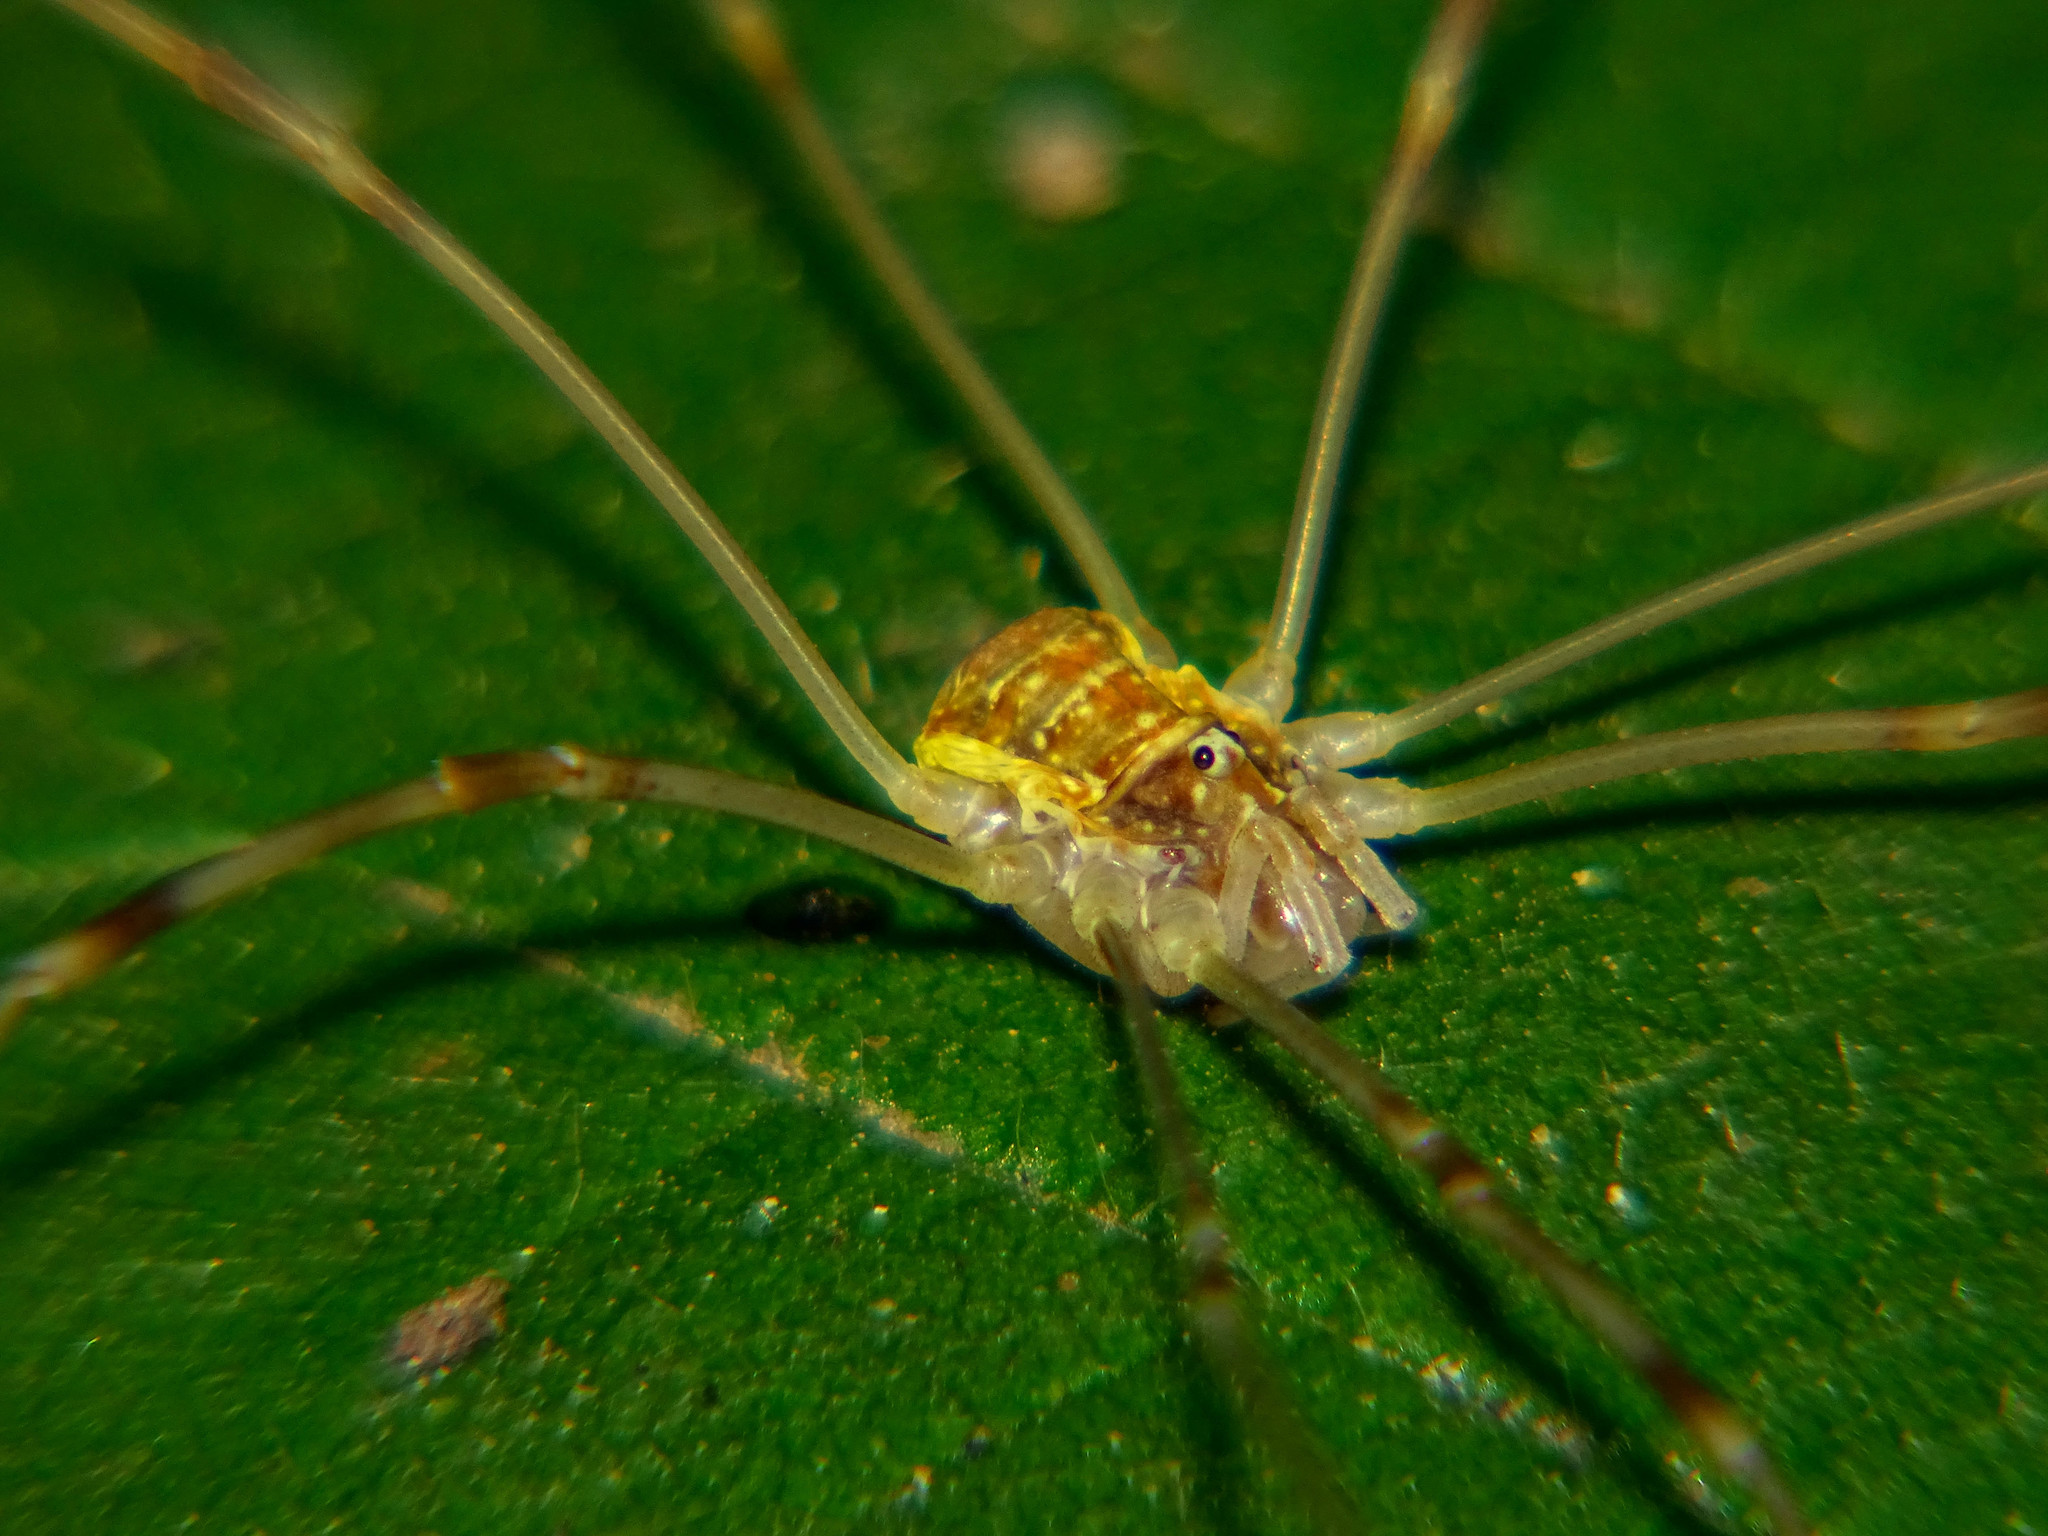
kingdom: Animalia
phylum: Arthropoda
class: Arachnida
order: Opiliones
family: Phalangiidae
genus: Opilio
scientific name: Opilio canestrinii
